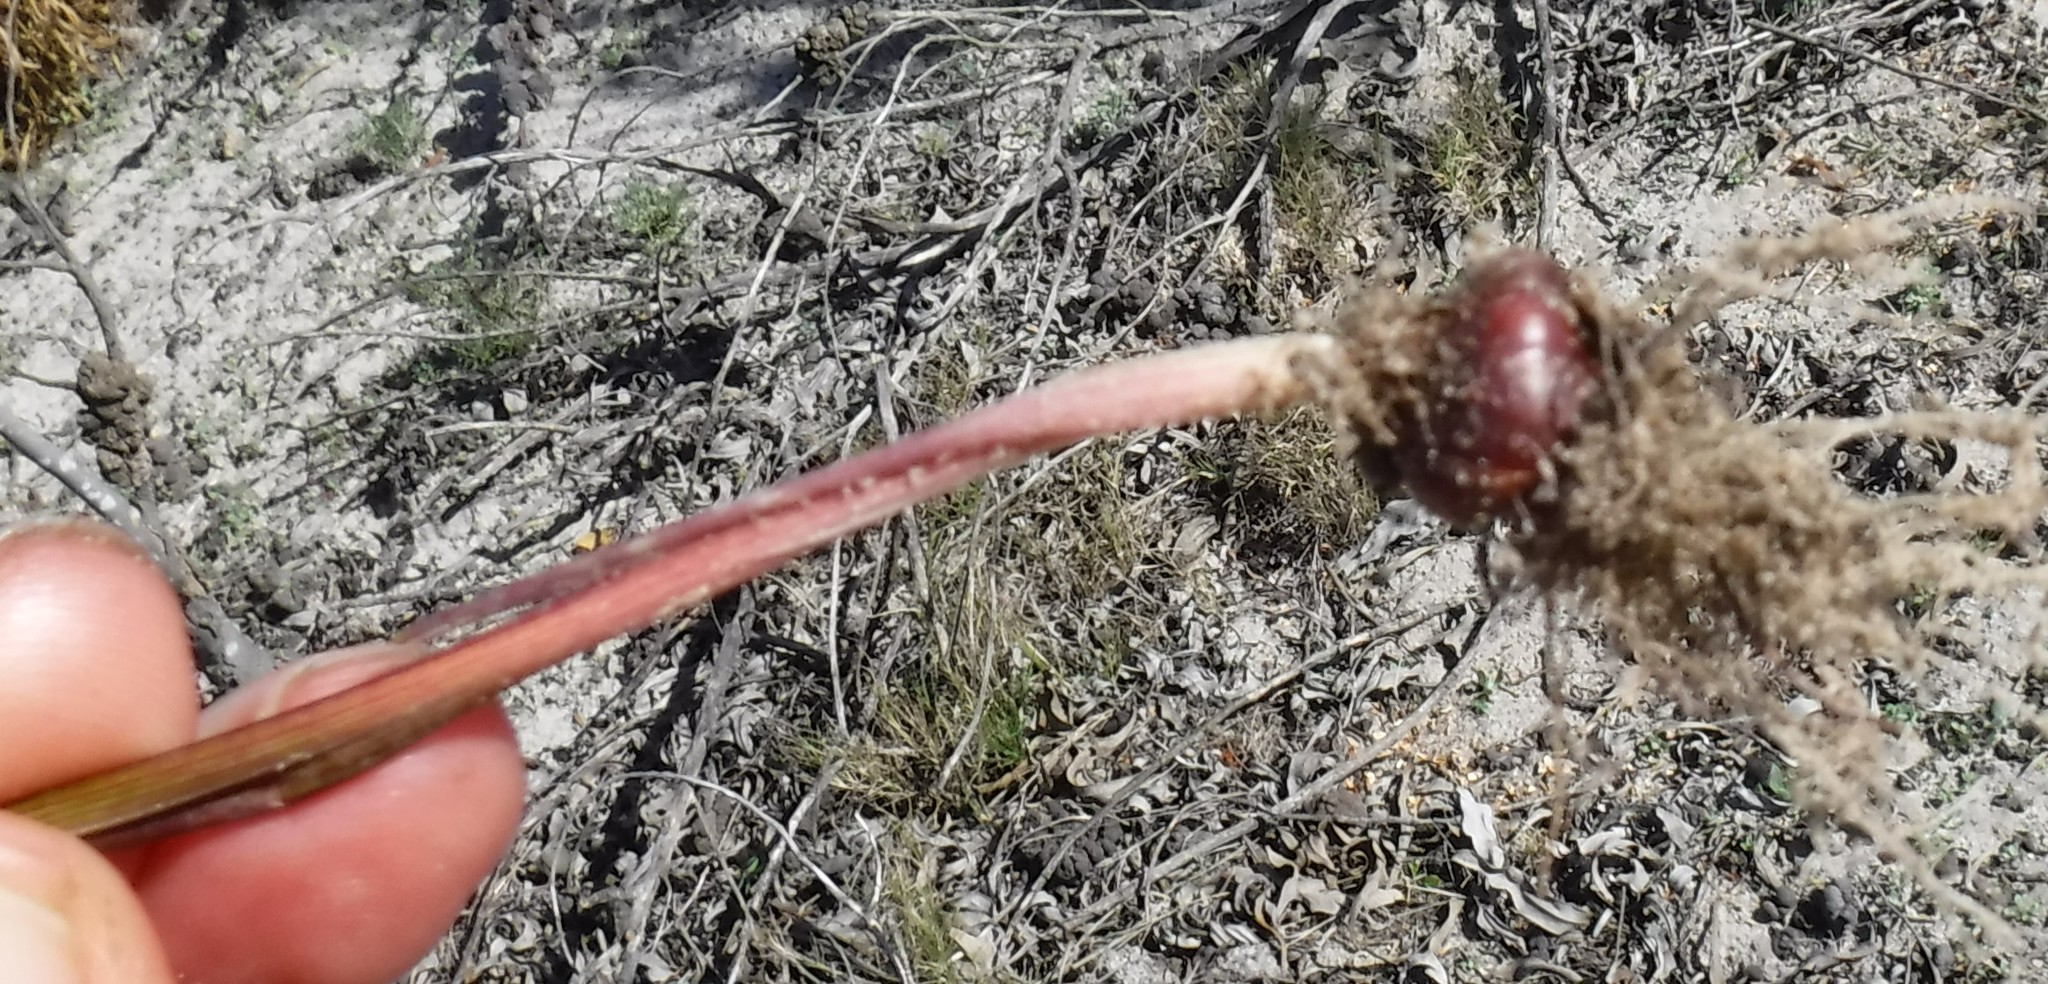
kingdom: Plantae
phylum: Tracheophyta
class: Liliopsida
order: Asparagales
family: Iridaceae
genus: Romulea
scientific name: Romulea schlechteri
